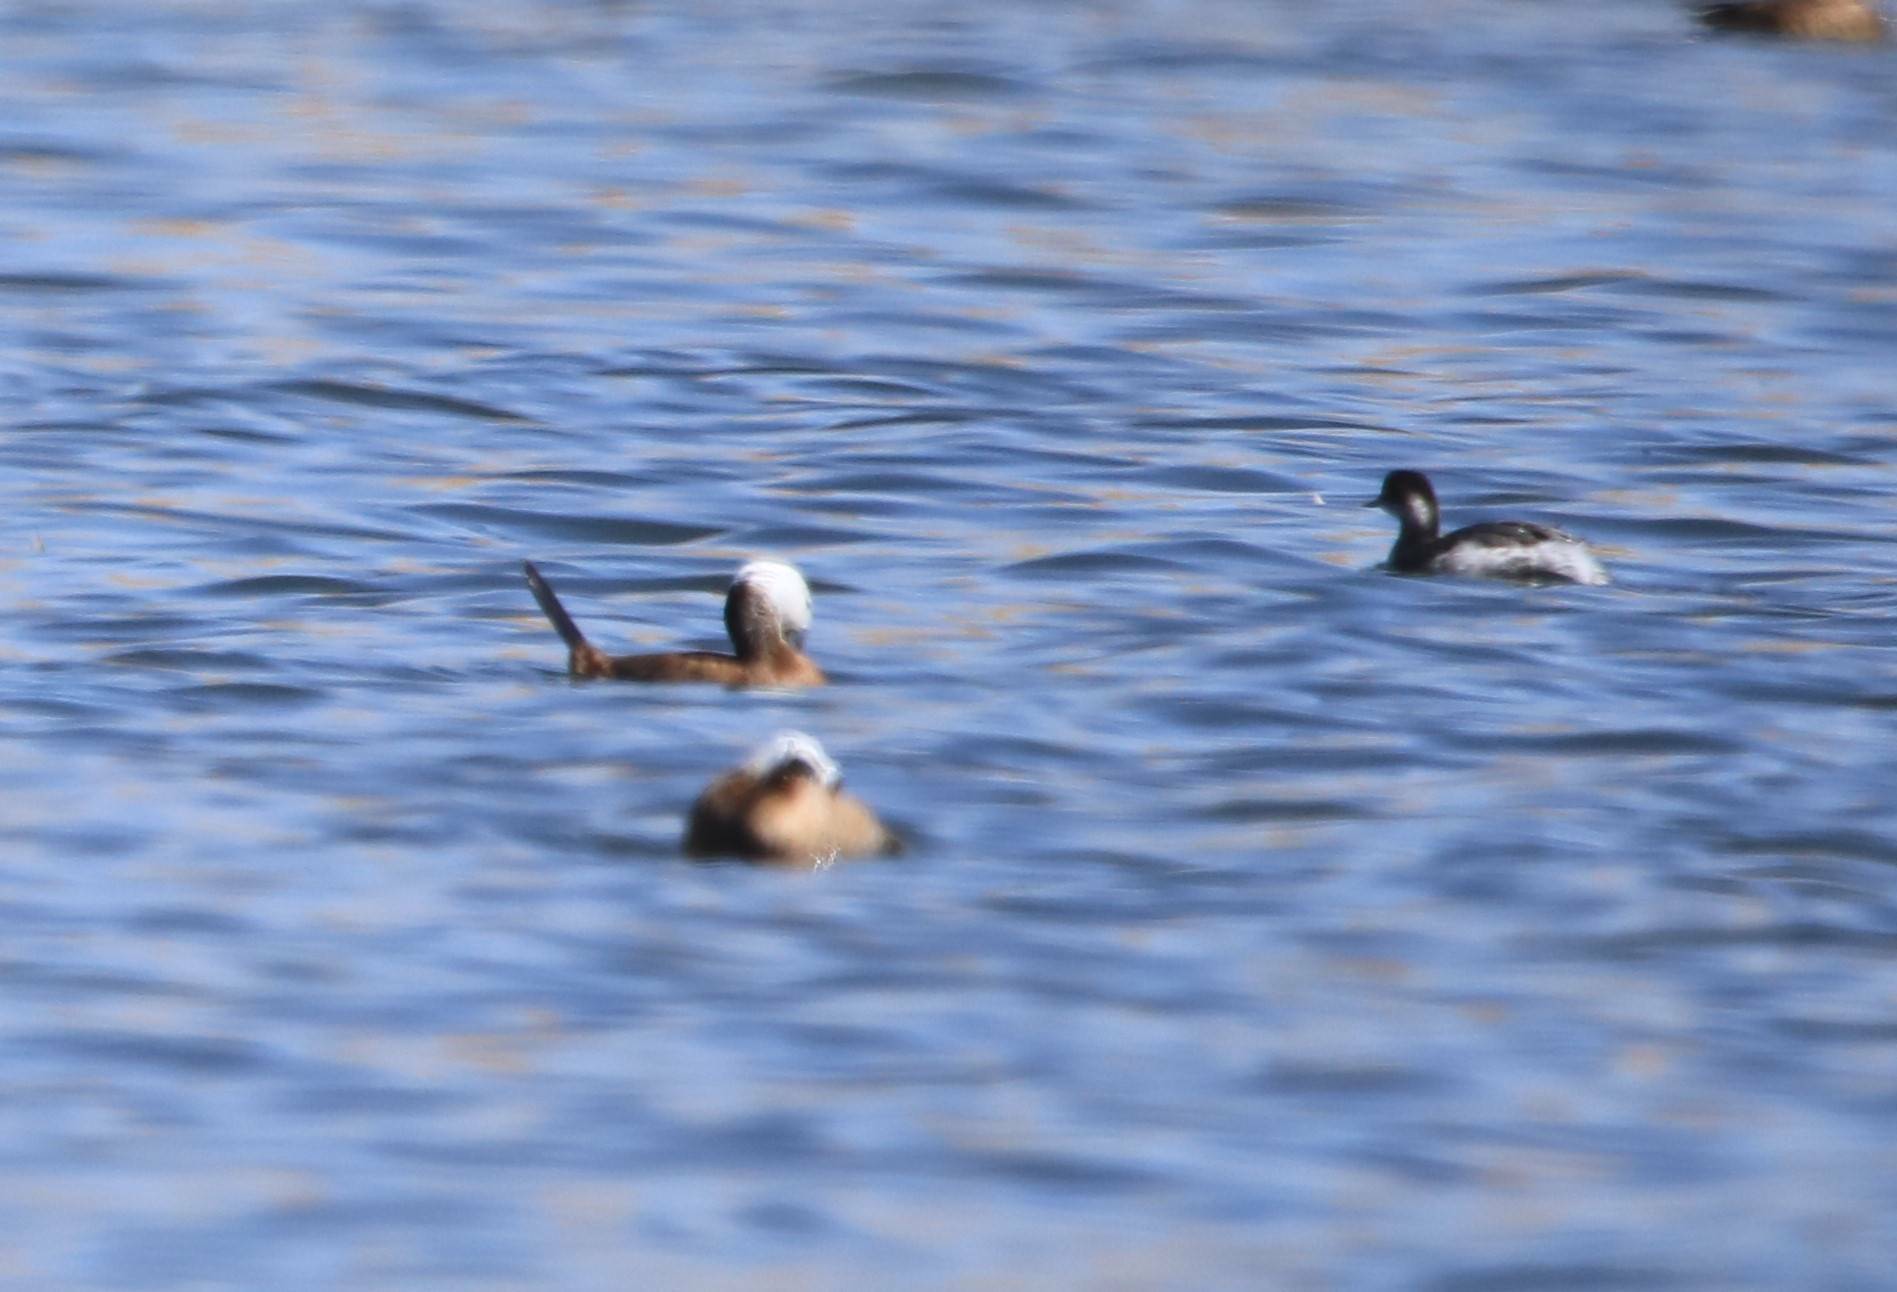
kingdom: Animalia
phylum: Chordata
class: Aves
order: Anseriformes
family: Anatidae
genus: Oxyura
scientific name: Oxyura leucocephala
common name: White-headed duck
